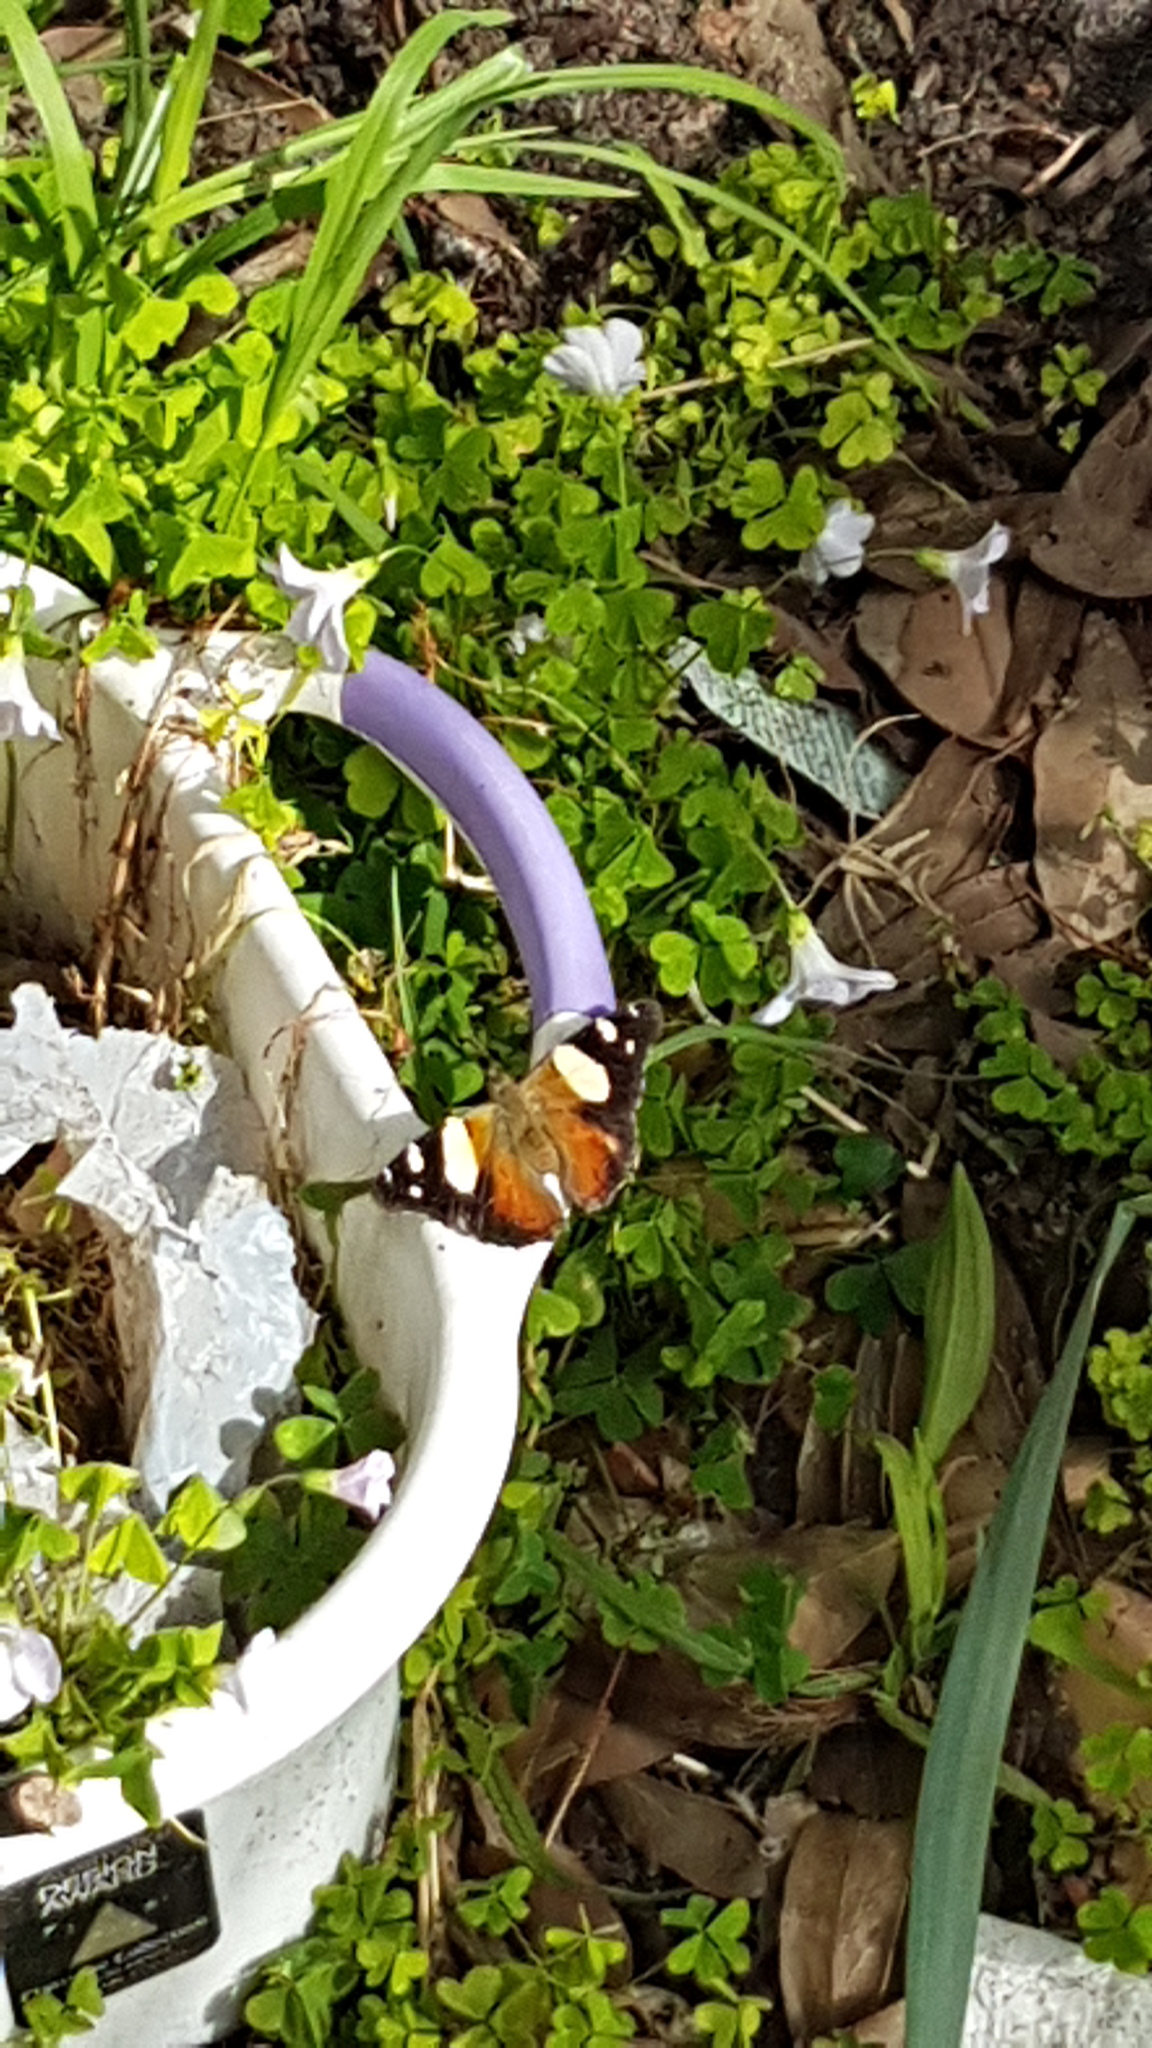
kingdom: Animalia
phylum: Arthropoda
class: Insecta
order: Lepidoptera
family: Nymphalidae
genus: Vanessa
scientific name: Vanessa itea
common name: Yellow admiral
